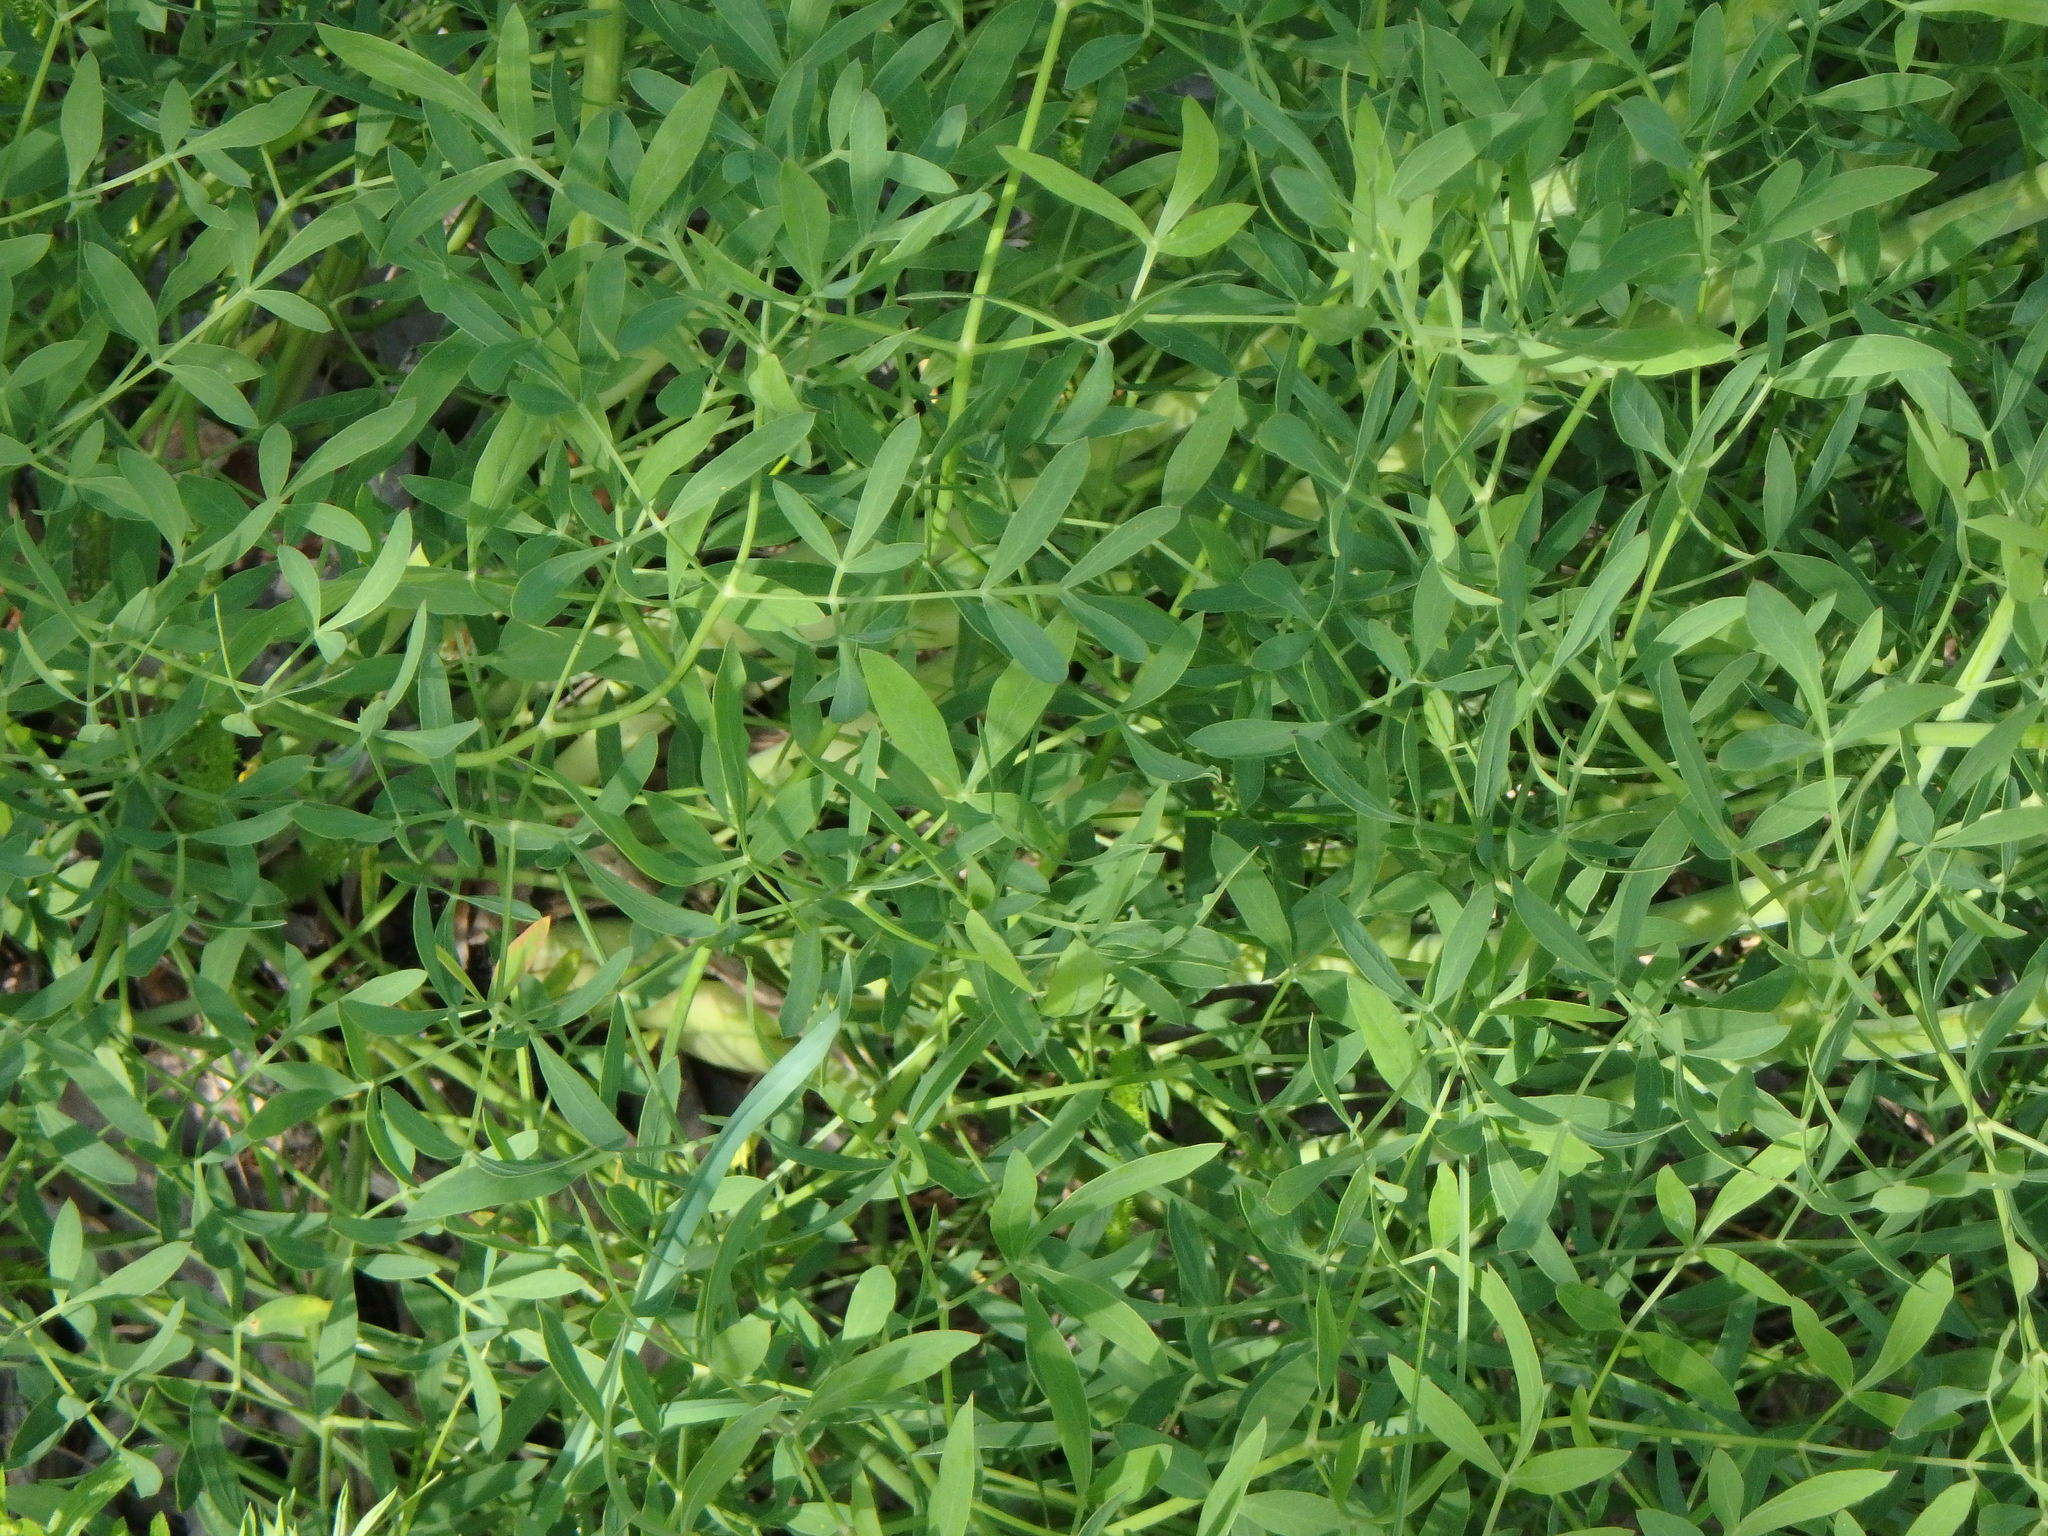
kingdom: Plantae
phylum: Tracheophyta
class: Magnoliopsida
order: Apiales
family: Apiaceae
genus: Siler
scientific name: Siler montanum
